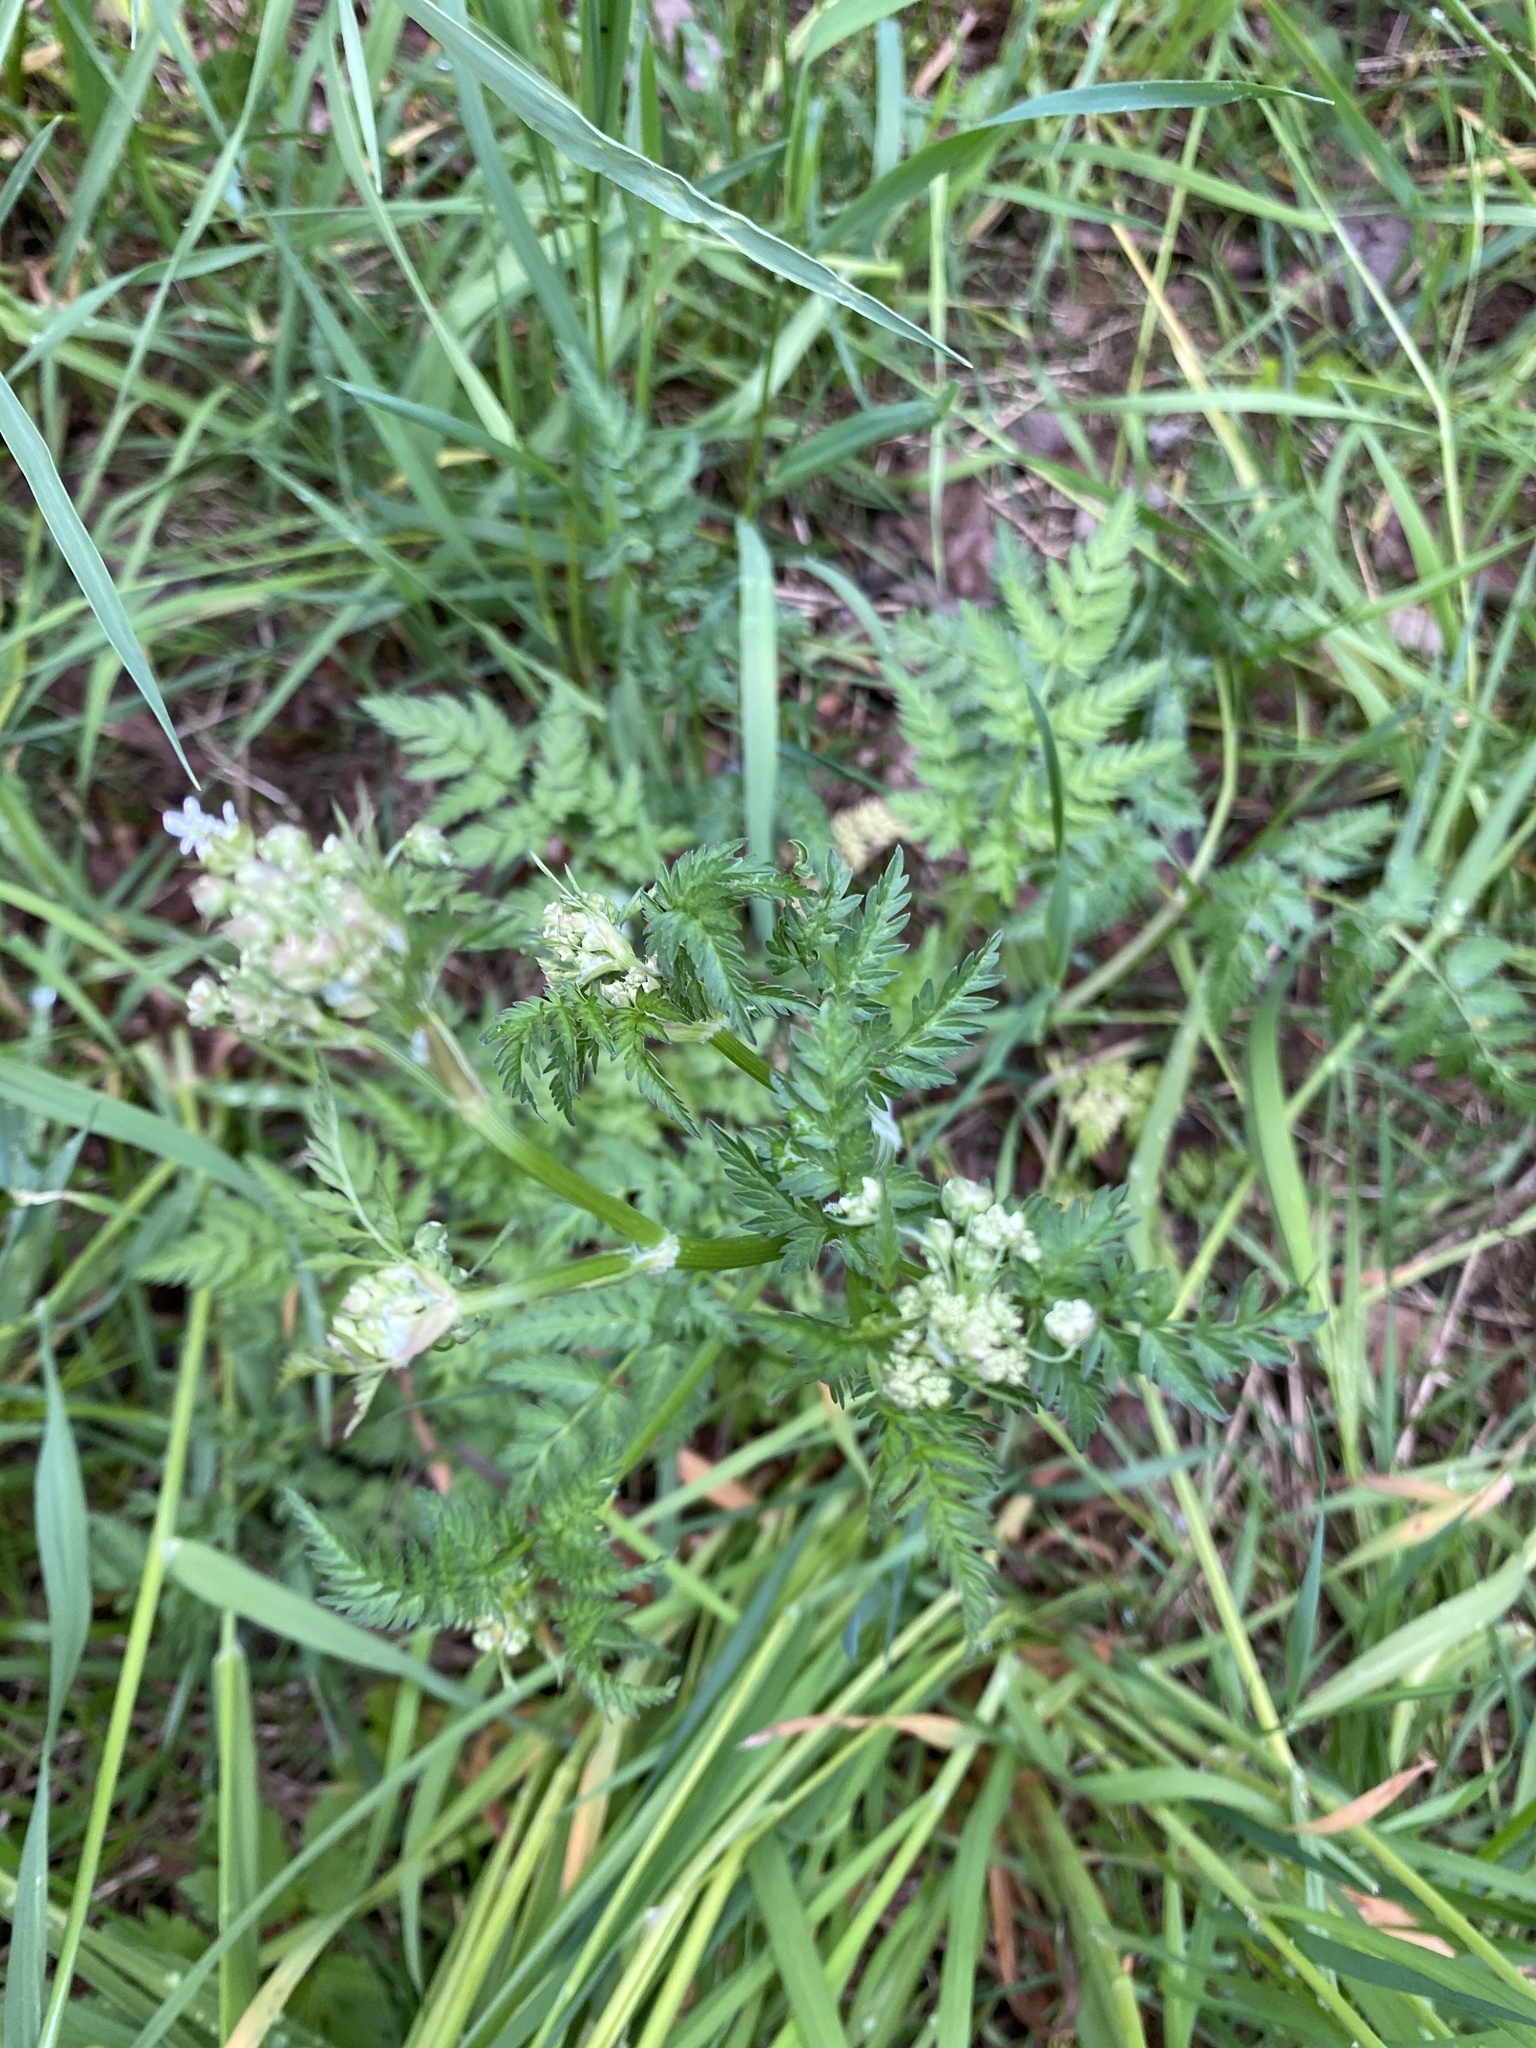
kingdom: Plantae
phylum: Tracheophyta
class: Magnoliopsida
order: Apiales
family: Apiaceae
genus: Anthriscus
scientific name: Anthriscus sylvestris
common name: Cow parsley
